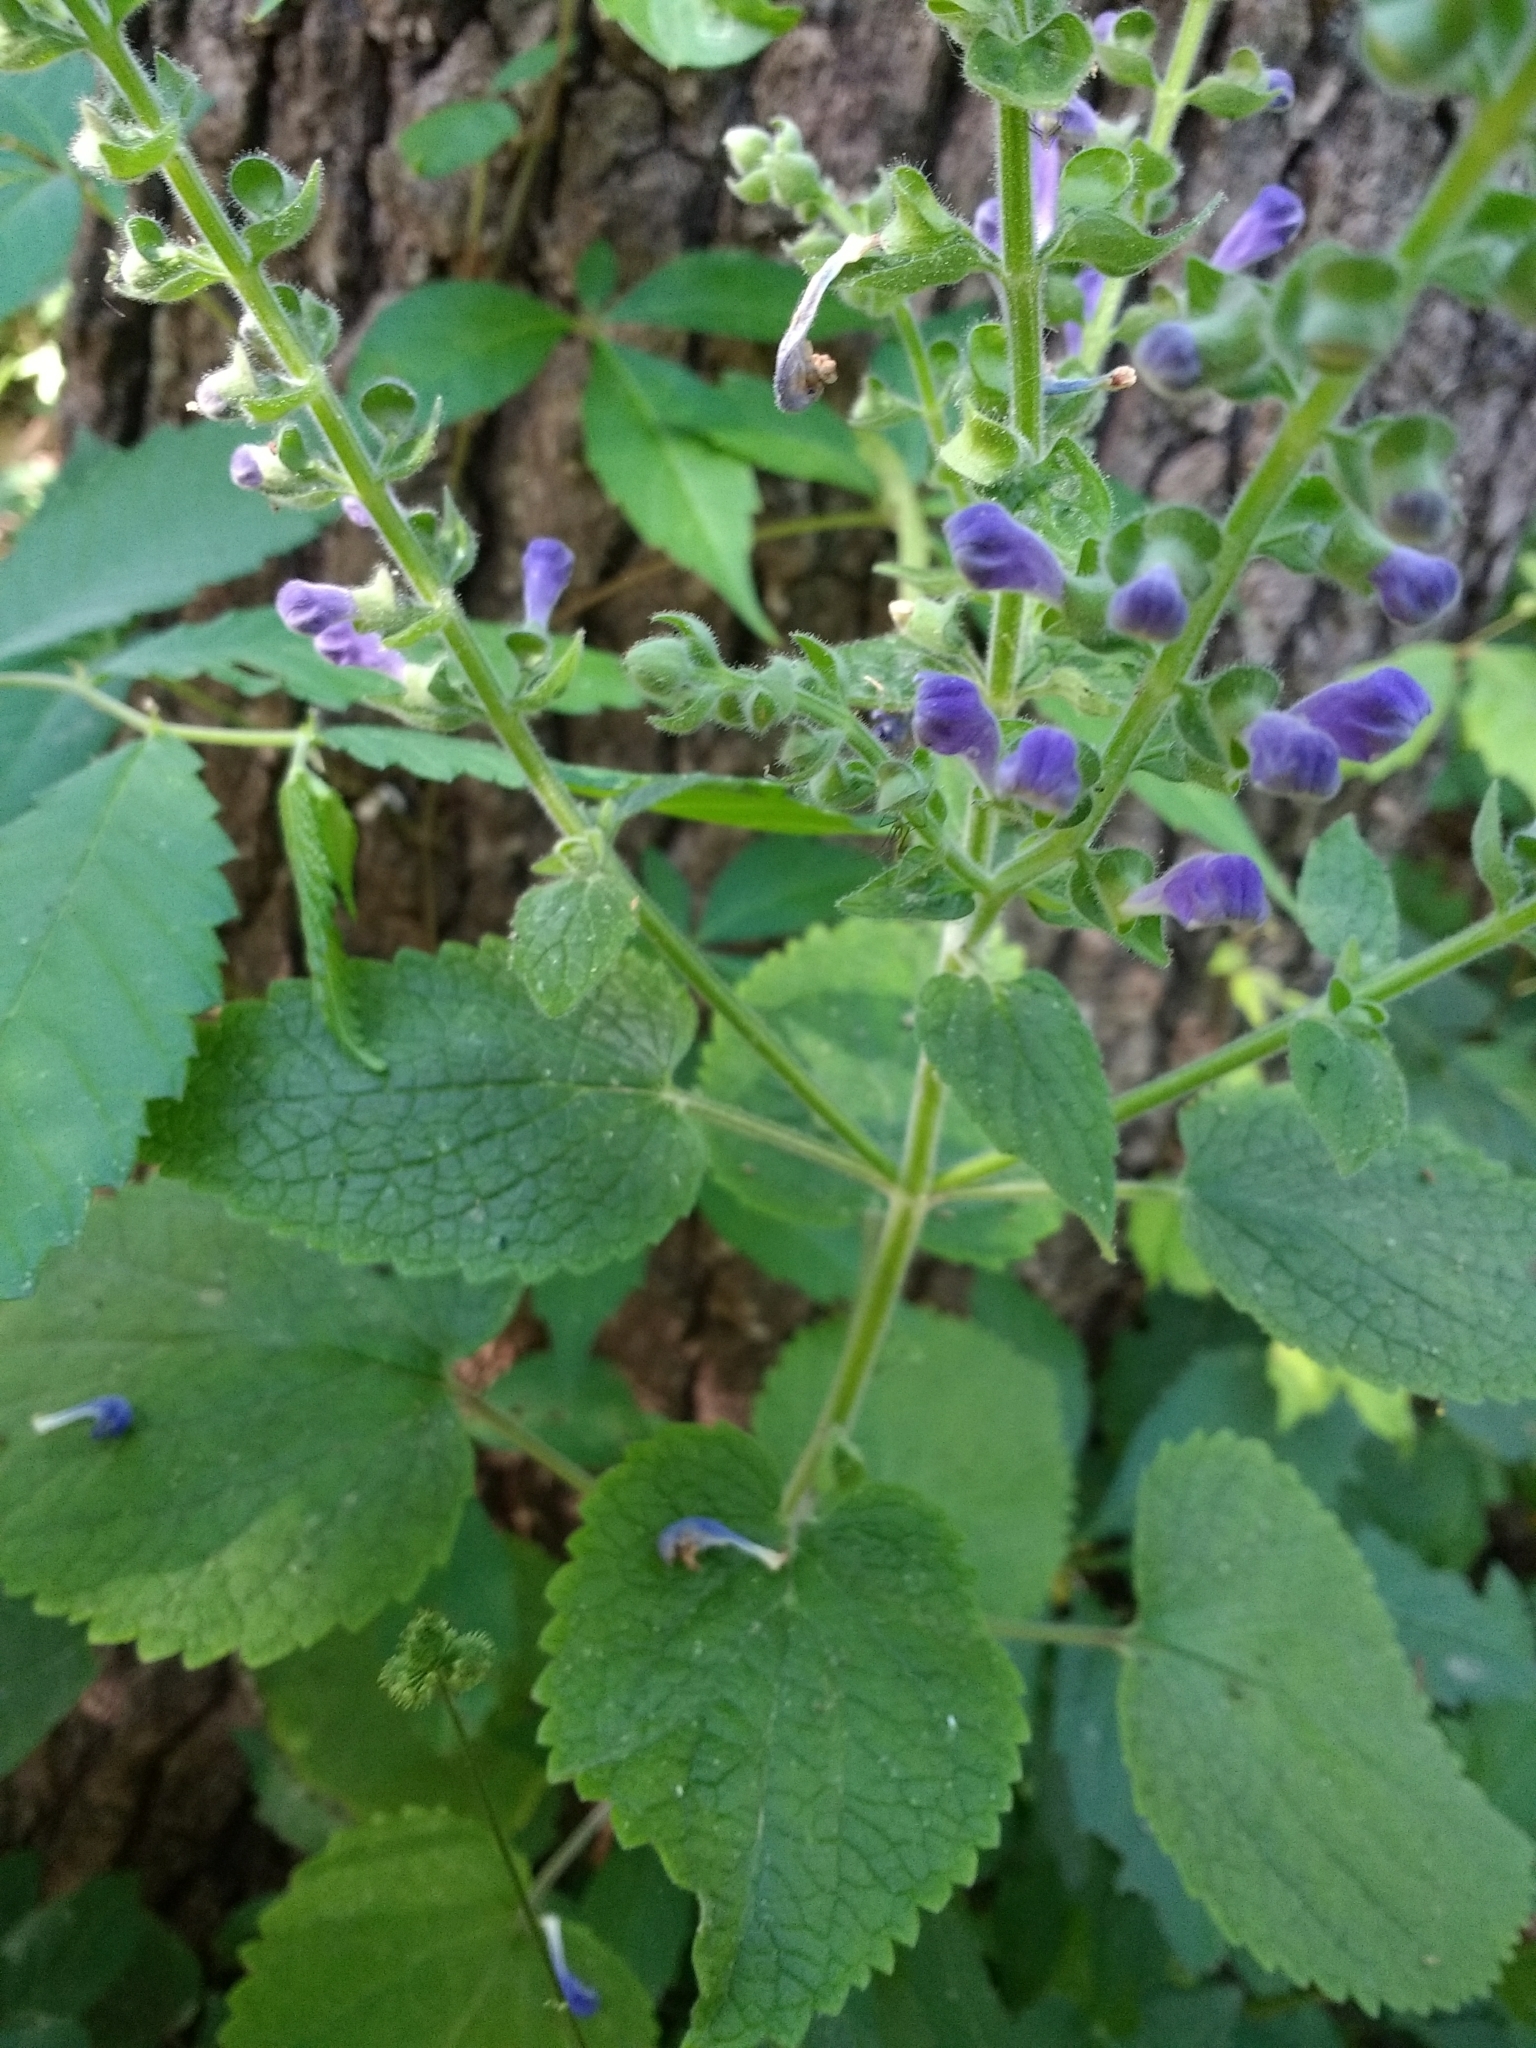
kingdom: Plantae
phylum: Tracheophyta
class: Magnoliopsida
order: Lamiales
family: Lamiaceae
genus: Scutellaria
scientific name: Scutellaria ovata
